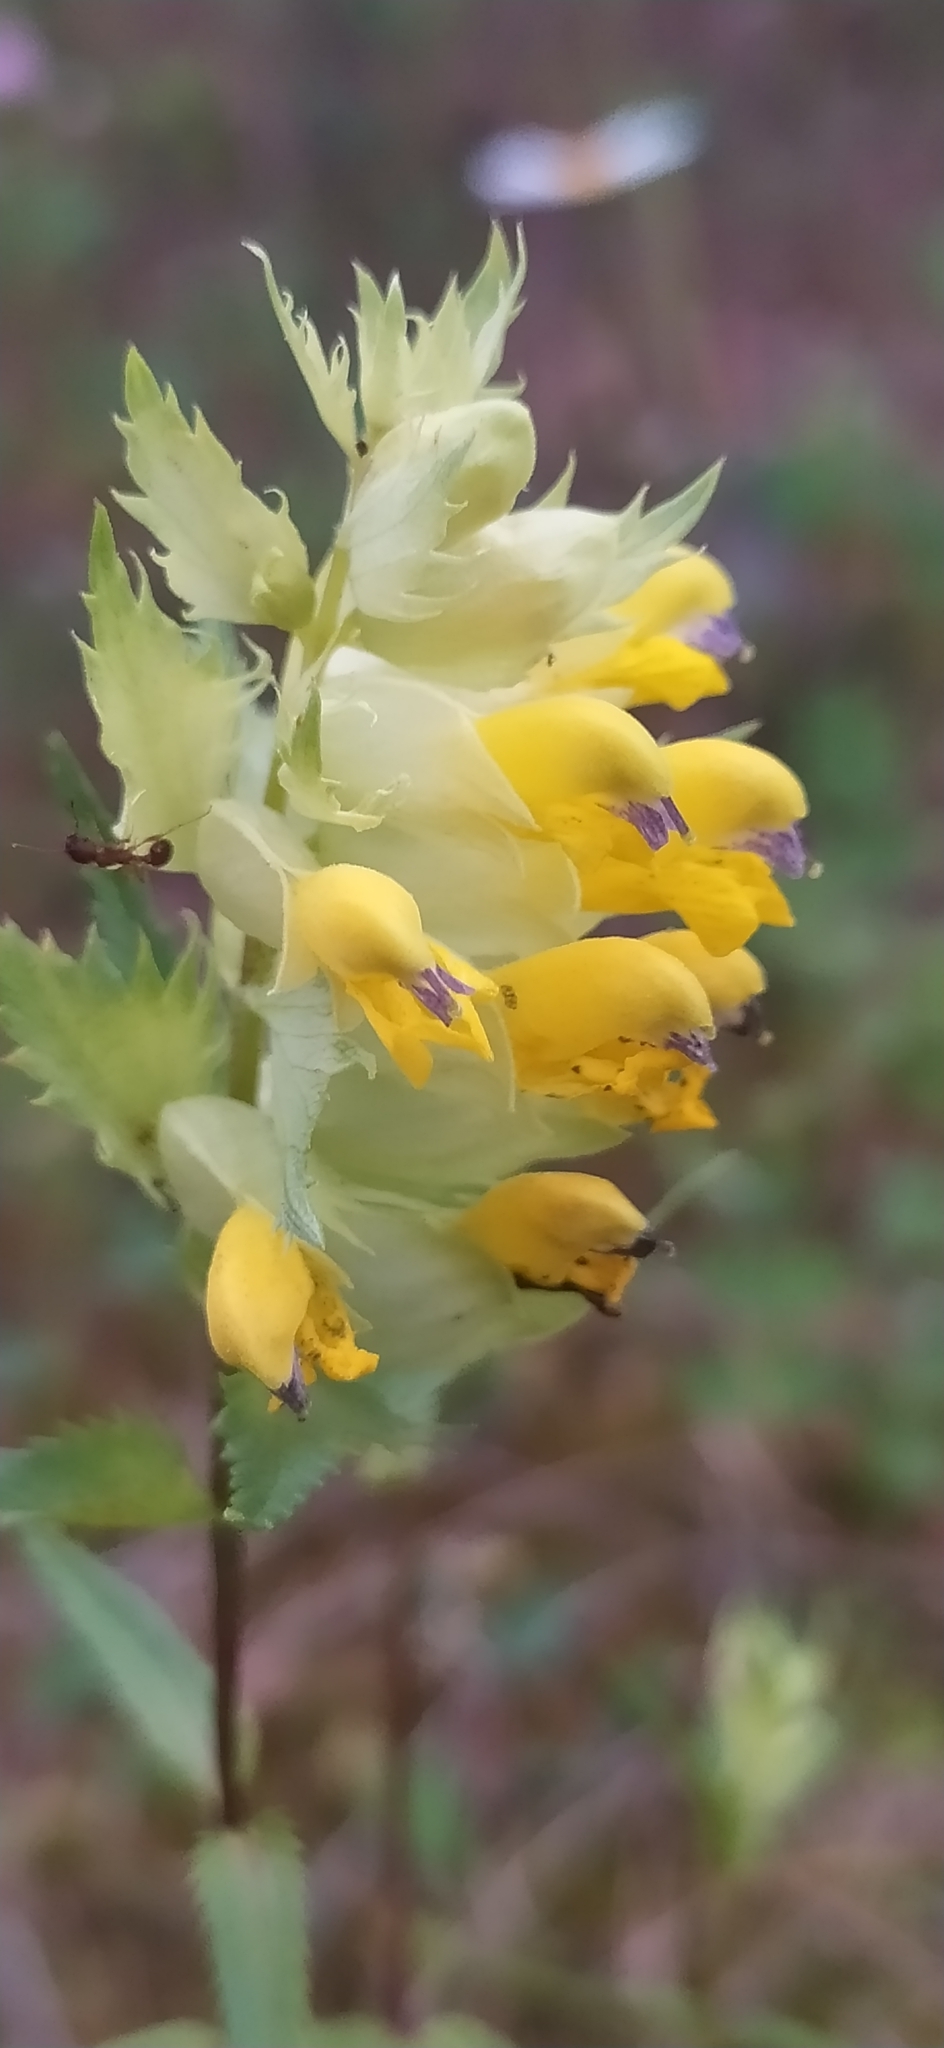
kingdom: Plantae
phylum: Tracheophyta
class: Magnoliopsida
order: Lamiales
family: Orobanchaceae
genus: Rhinanthus
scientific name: Rhinanthus serotinus
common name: Late-flowering yellow rattle
